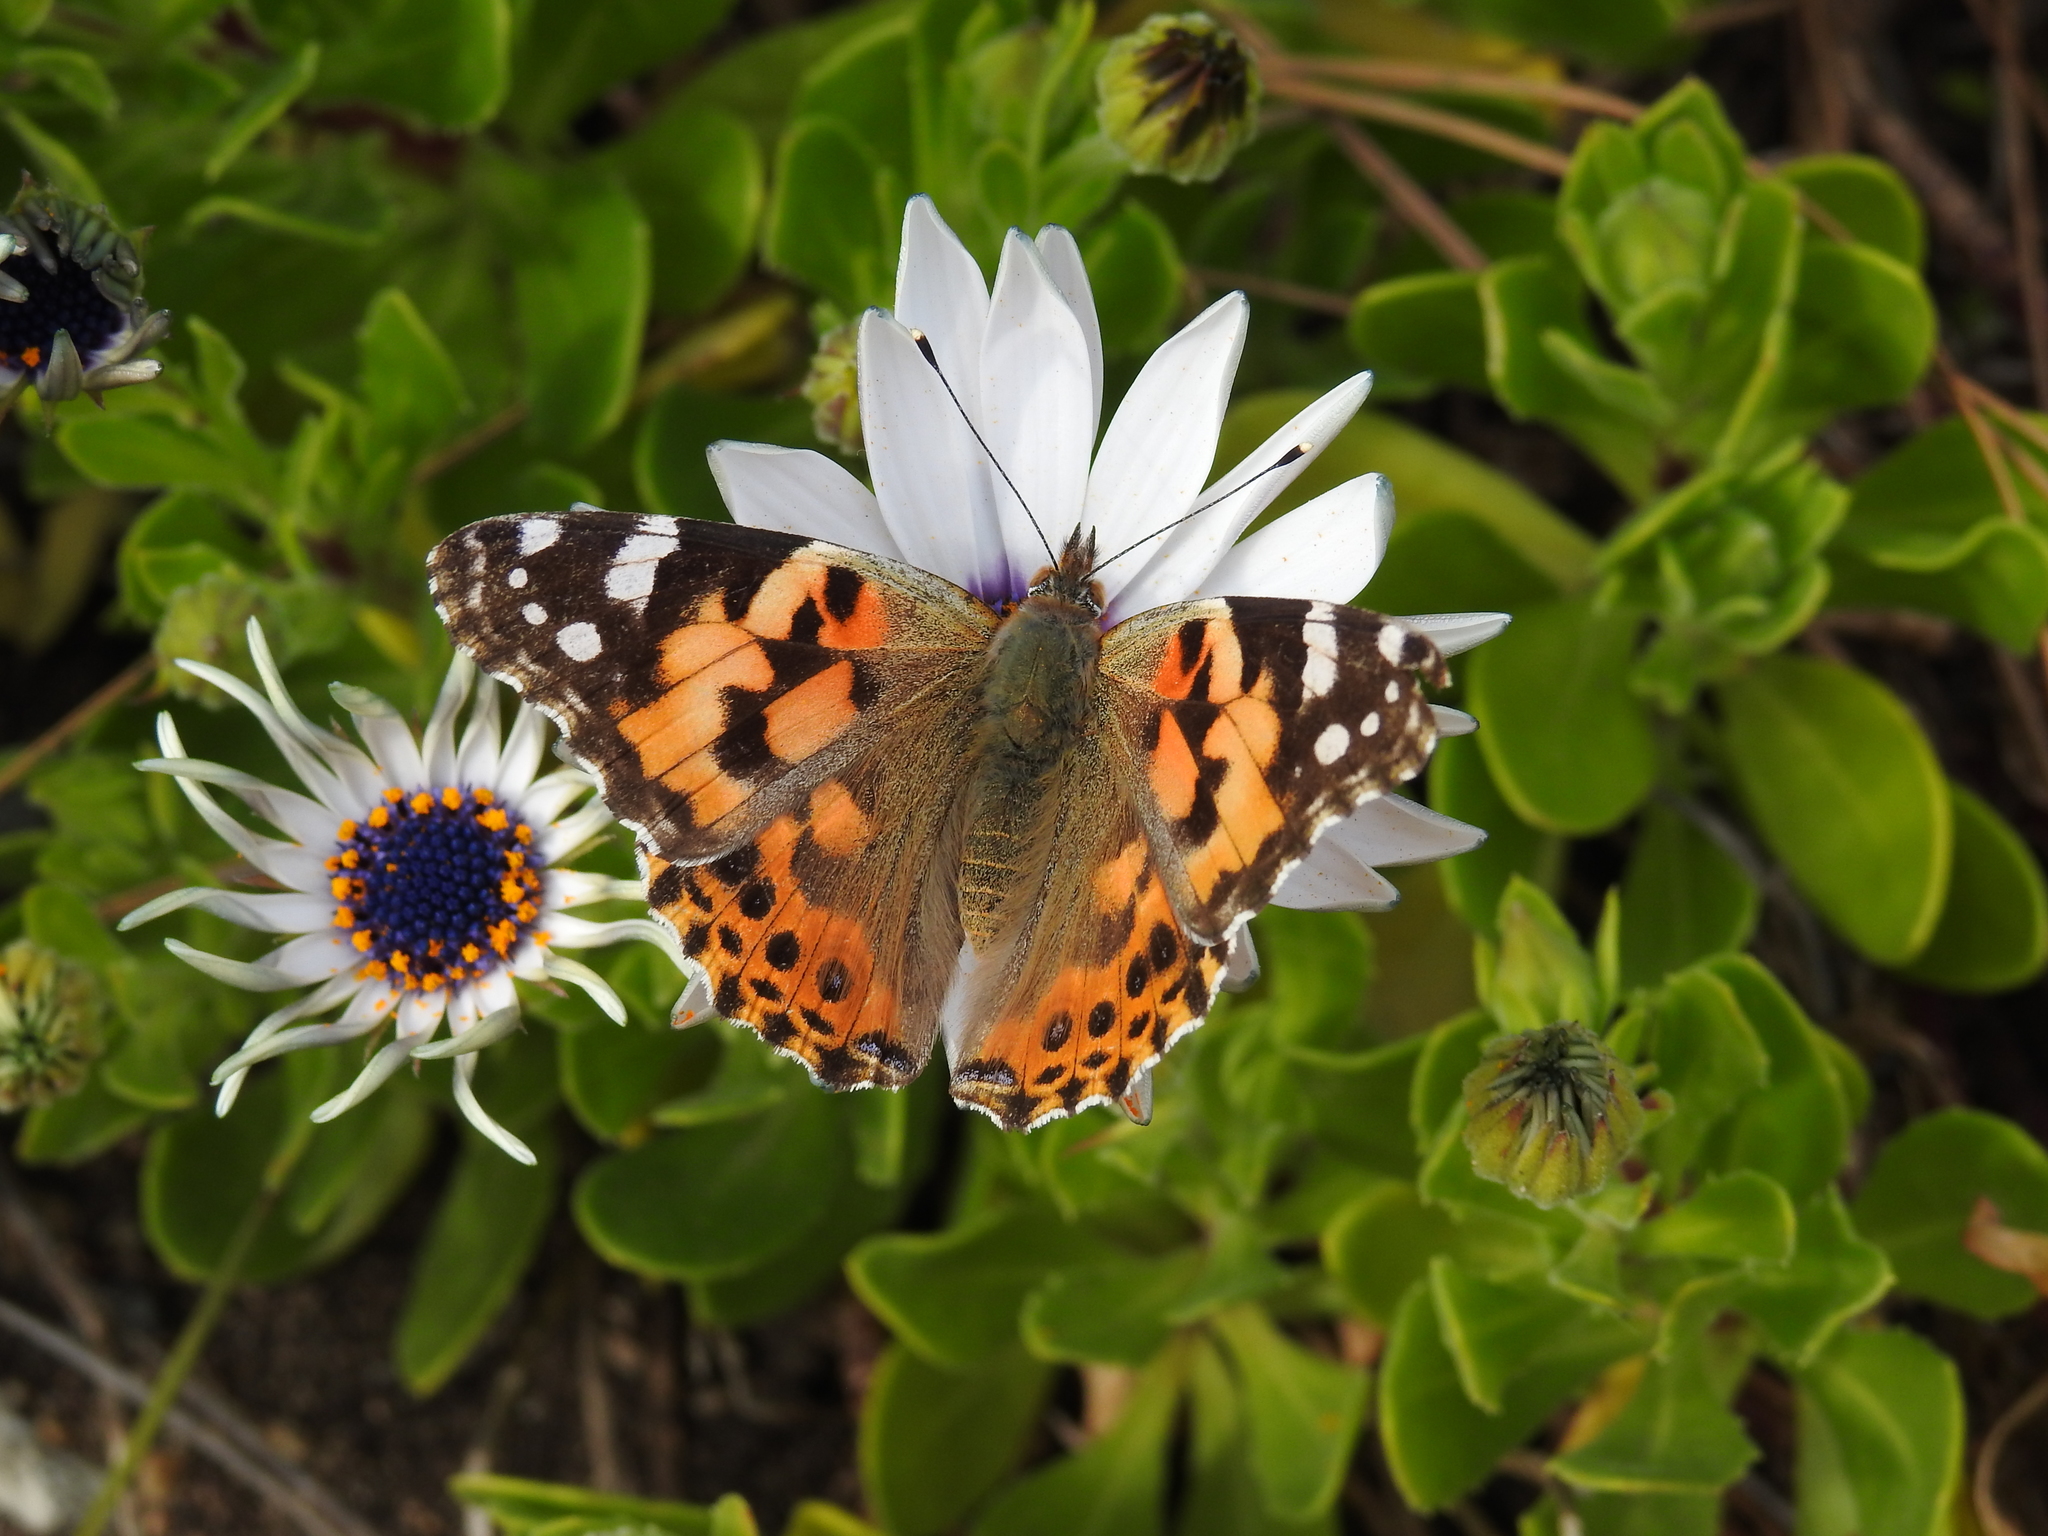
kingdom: Animalia
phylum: Arthropoda
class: Insecta
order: Lepidoptera
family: Nymphalidae
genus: Vanessa
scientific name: Vanessa cardui
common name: Painted lady
